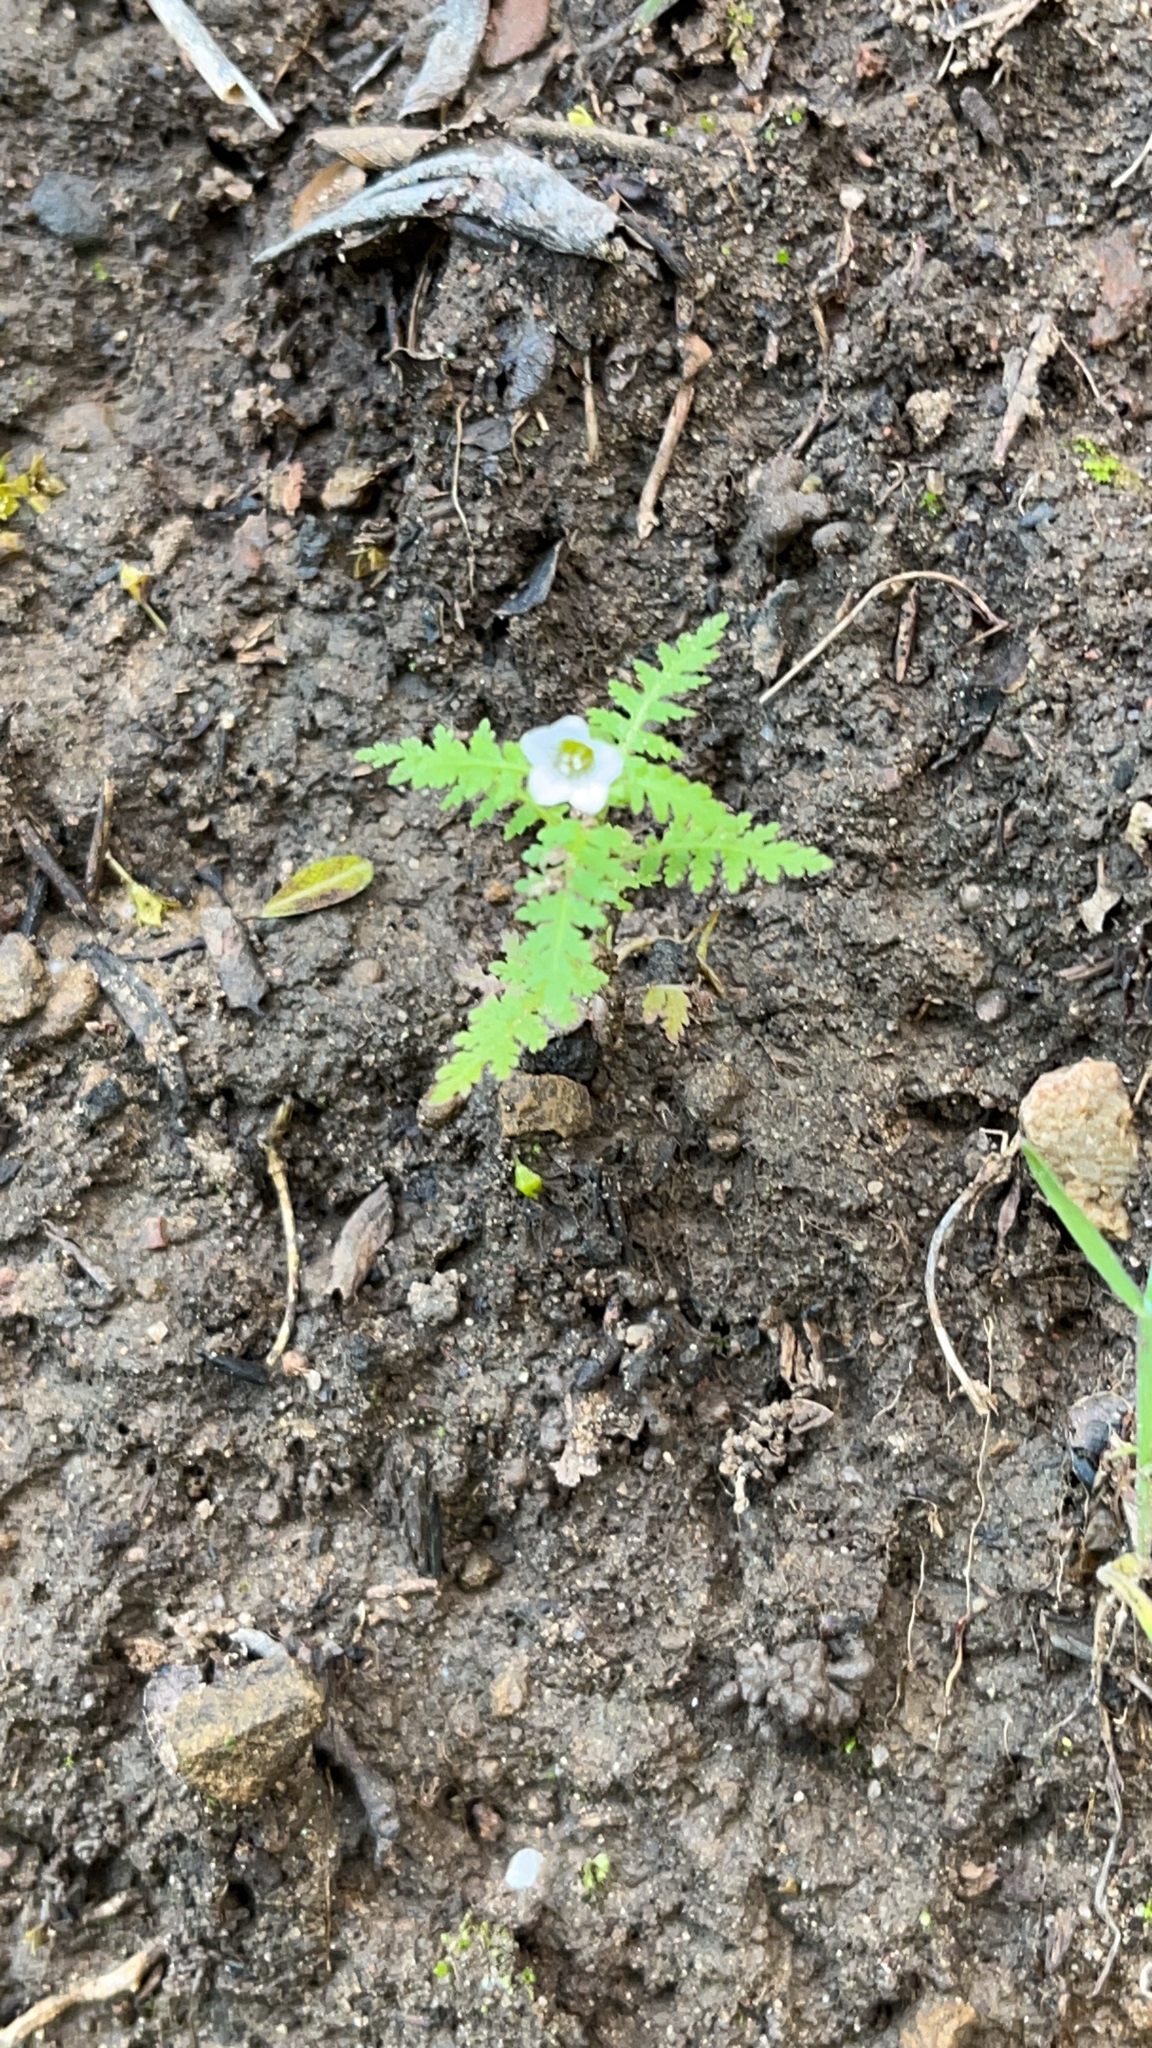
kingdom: Plantae
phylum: Tracheophyta
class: Magnoliopsida
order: Boraginales
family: Hydrophyllaceae
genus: Eucrypta
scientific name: Eucrypta chrysanthemifolia
